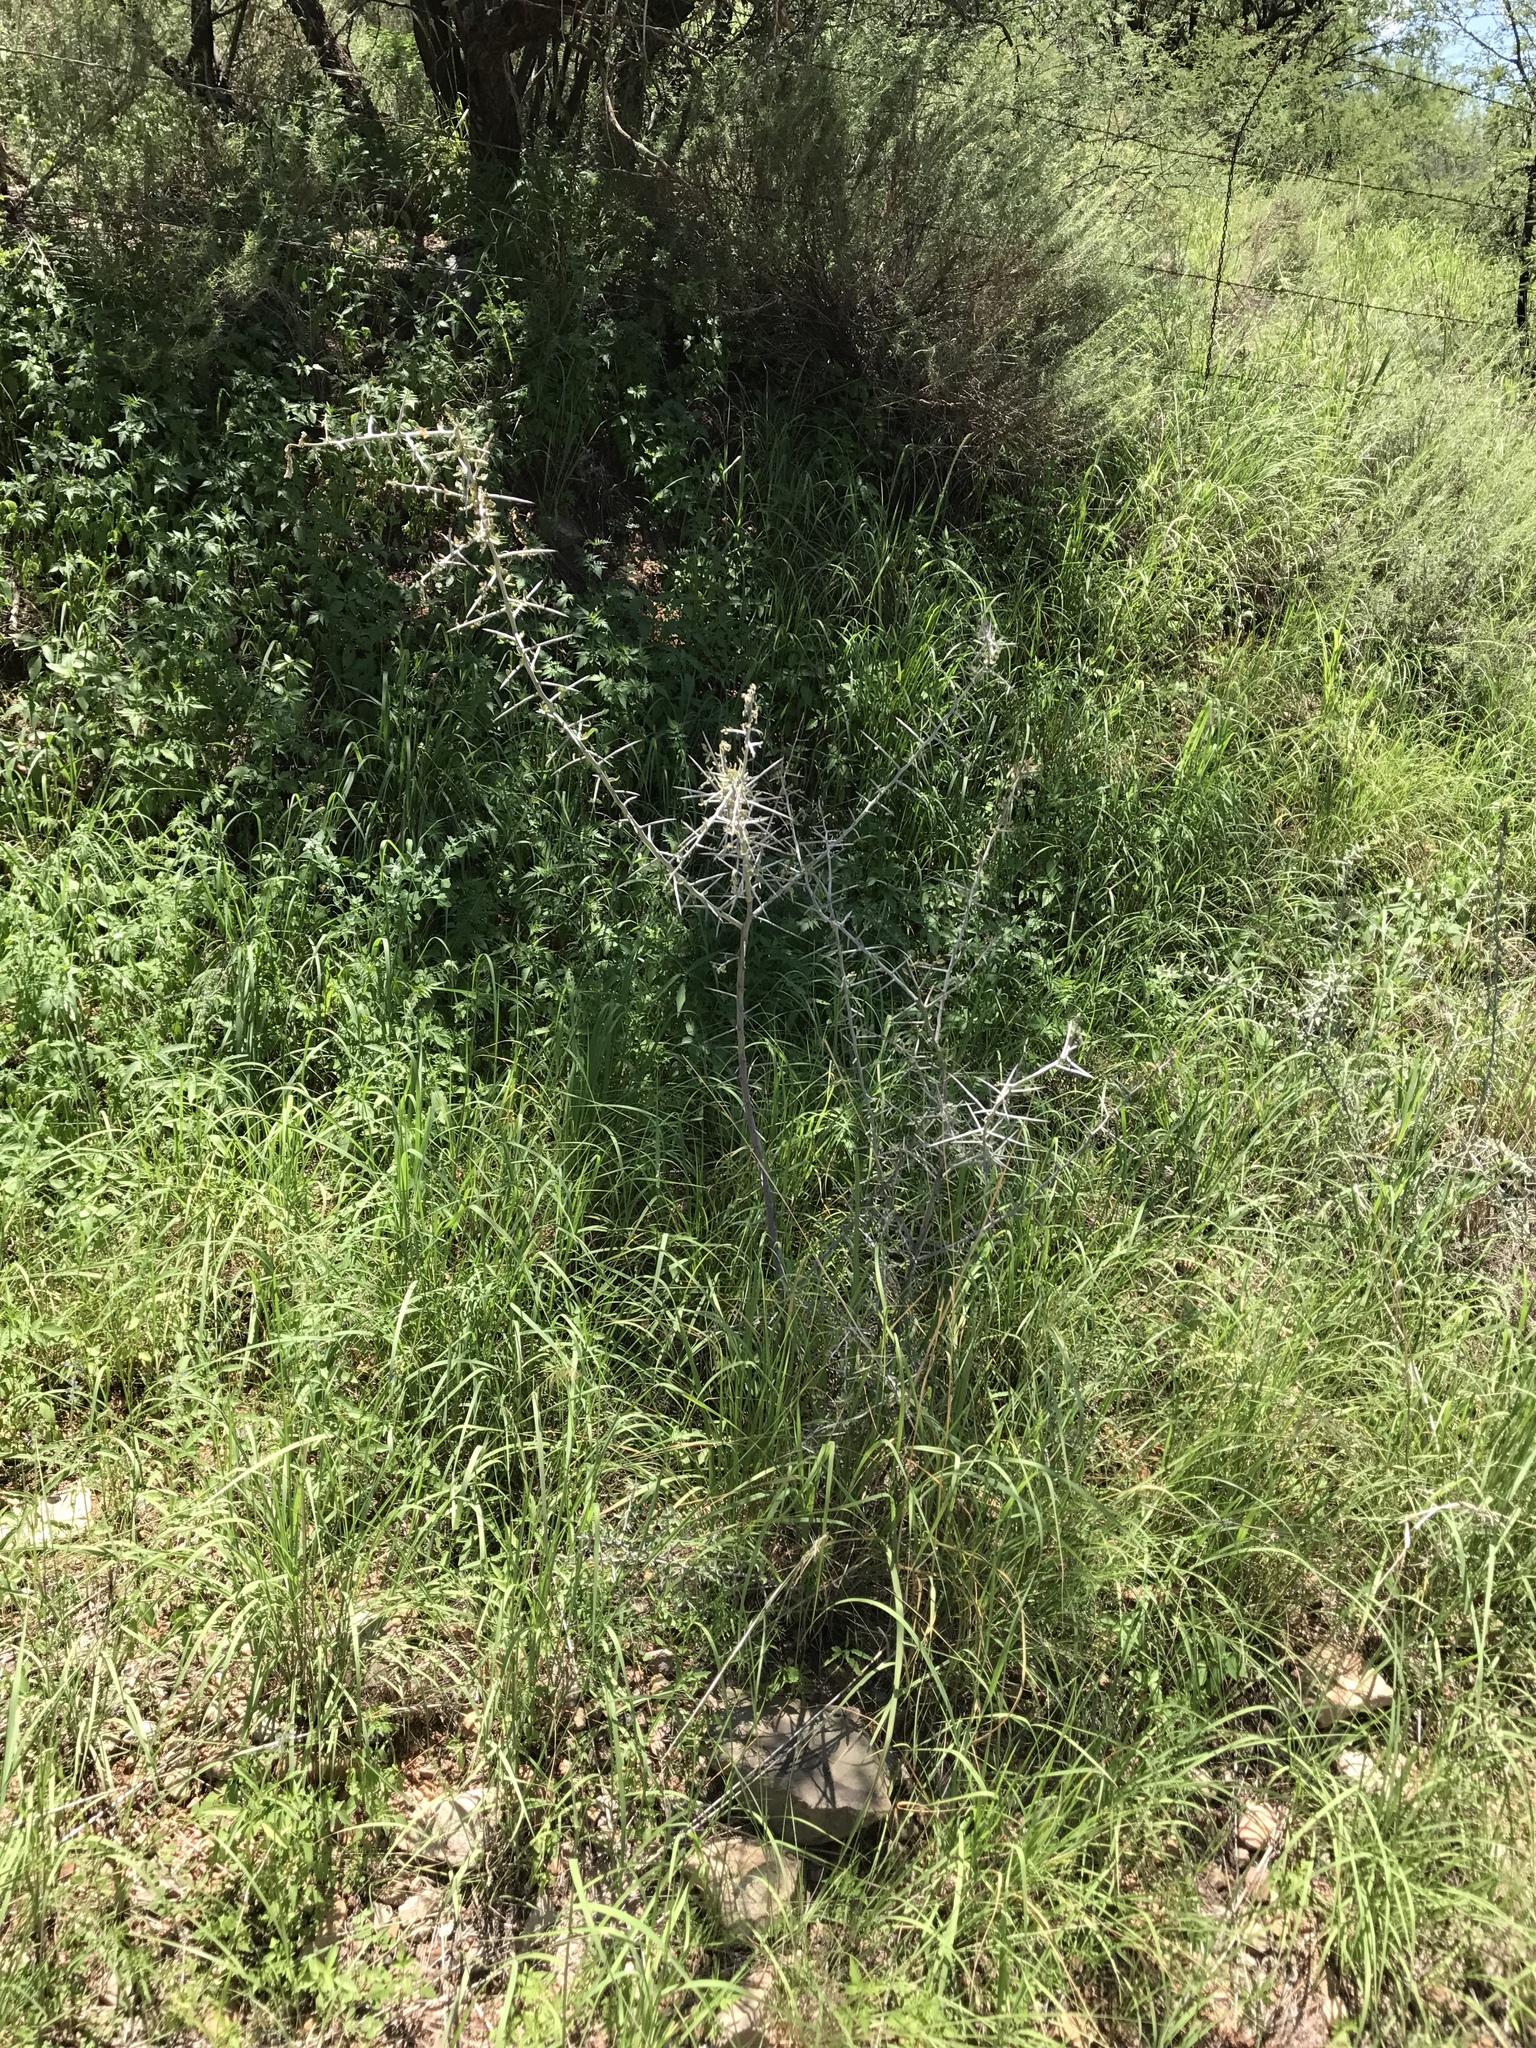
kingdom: Plantae
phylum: Tracheophyta
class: Magnoliopsida
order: Rosales
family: Rhamnaceae
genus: Sarcomphalus
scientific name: Sarcomphalus obtusifolius
